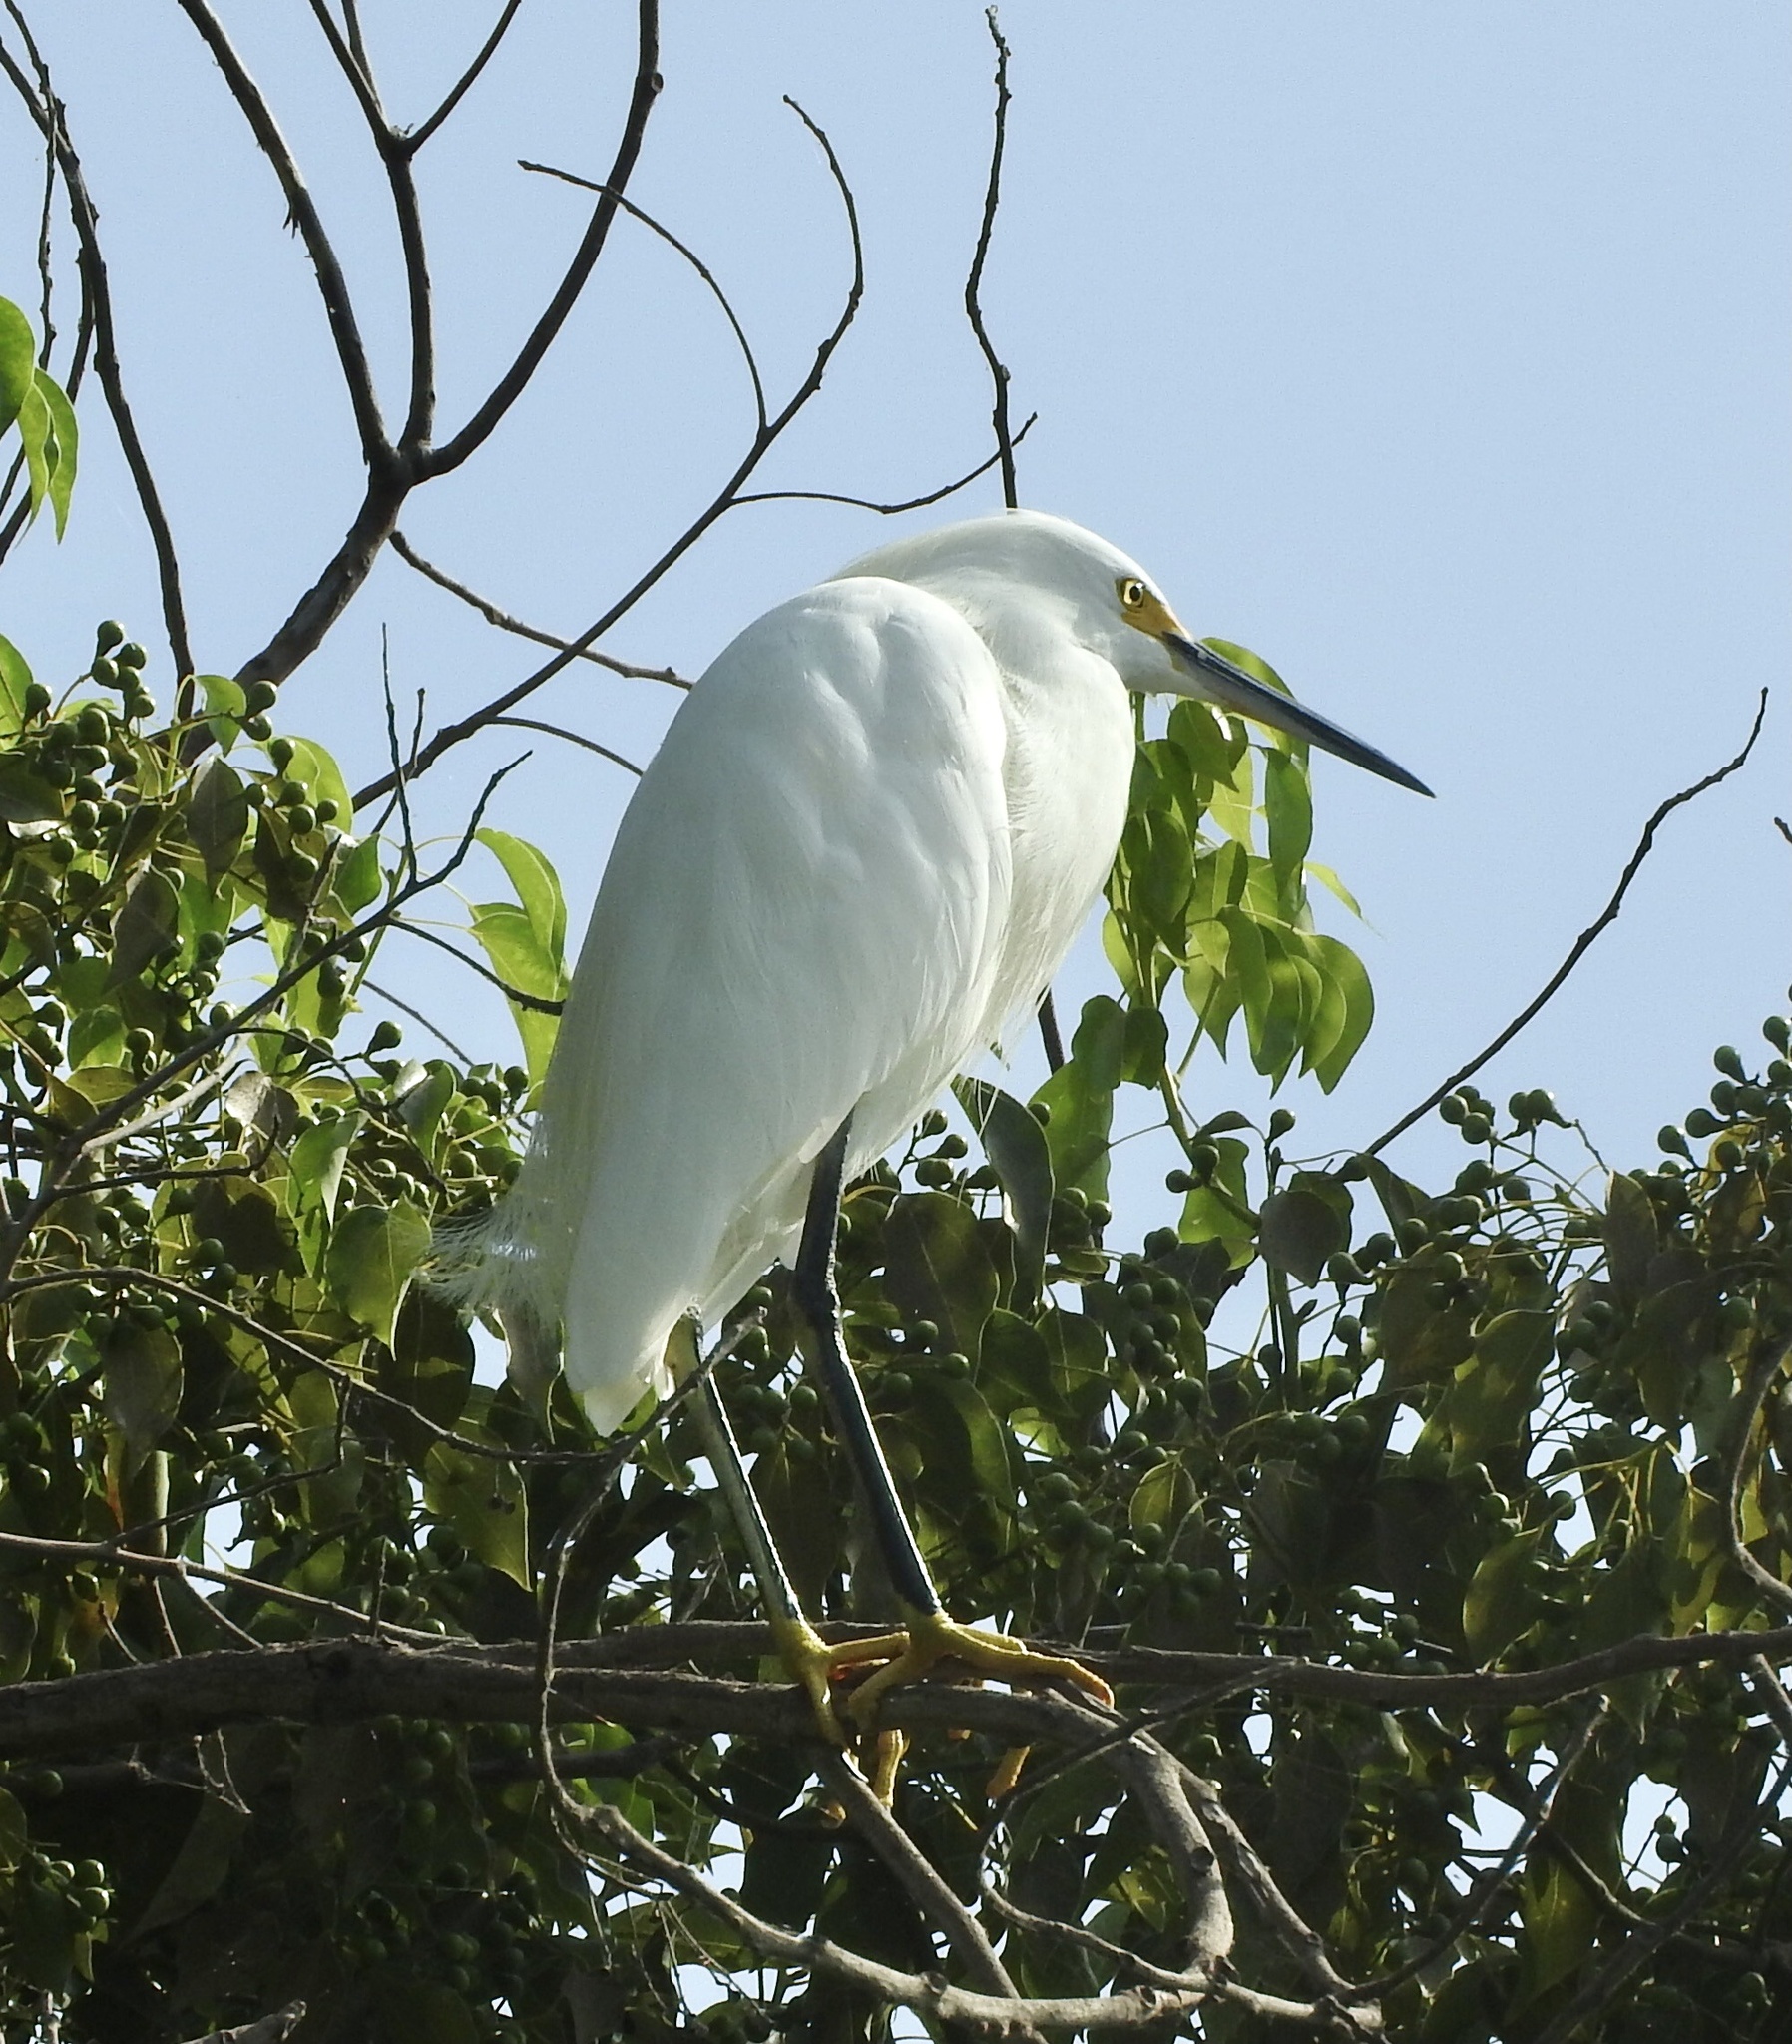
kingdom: Animalia
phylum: Chordata
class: Aves
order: Pelecaniformes
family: Ardeidae
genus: Egretta
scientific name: Egretta thula
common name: Snowy egret
